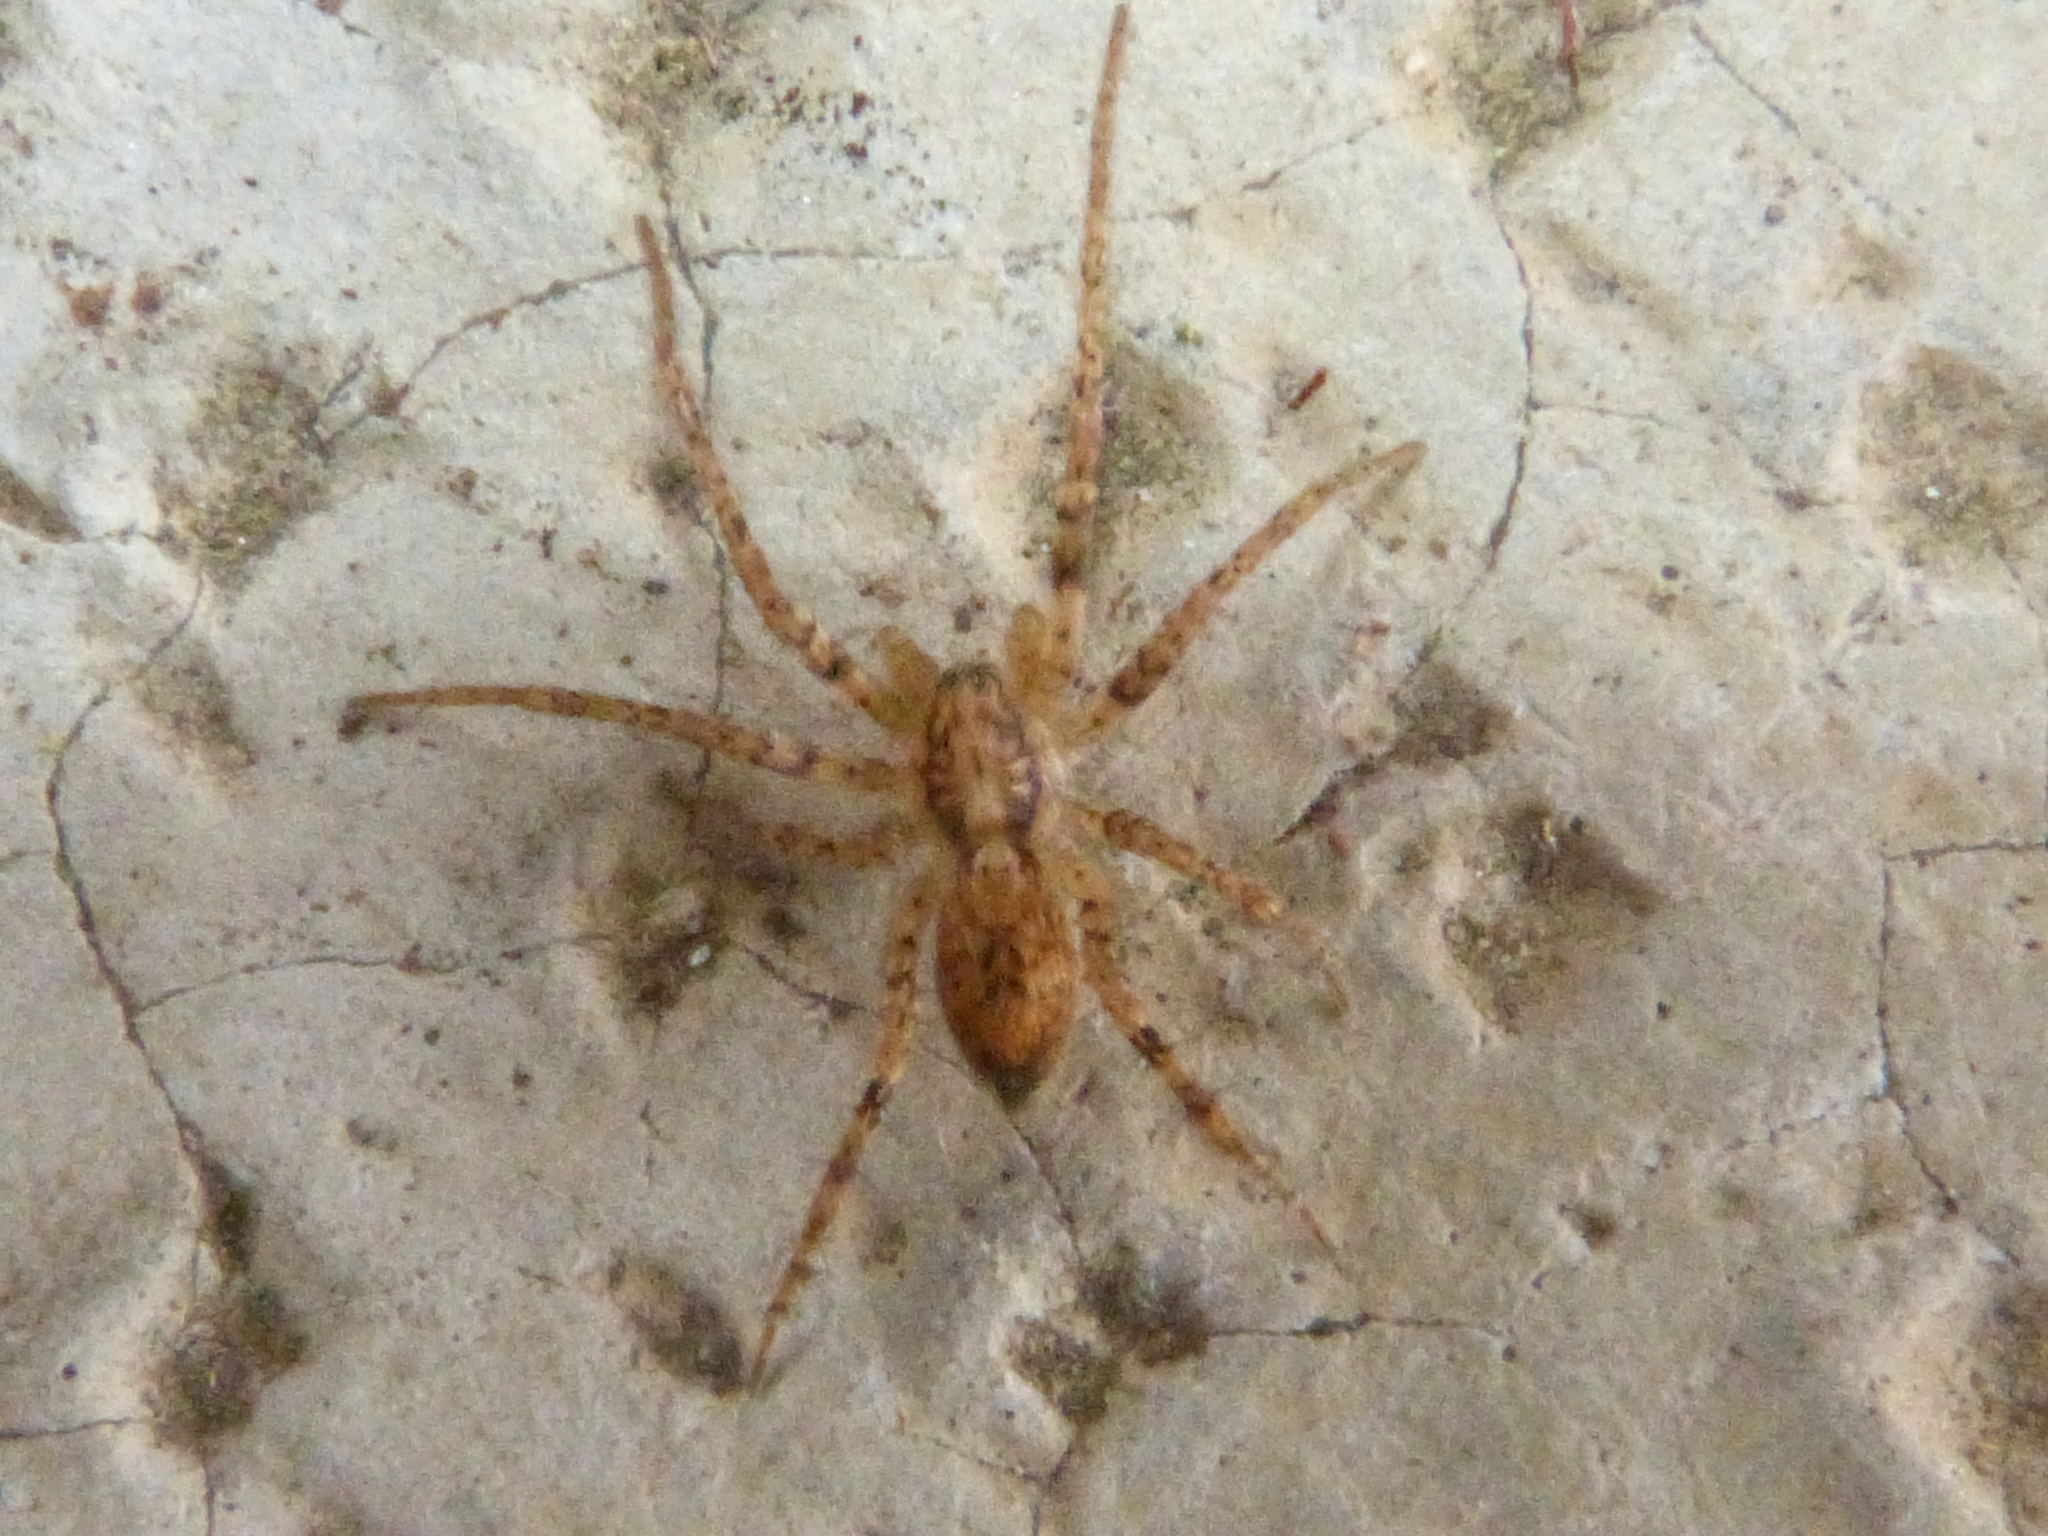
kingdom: Animalia
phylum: Arthropoda
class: Arachnida
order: Araneae
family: Anyphaenidae
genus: Anyphaena
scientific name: Anyphaena accentuata
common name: Buzzing spider
